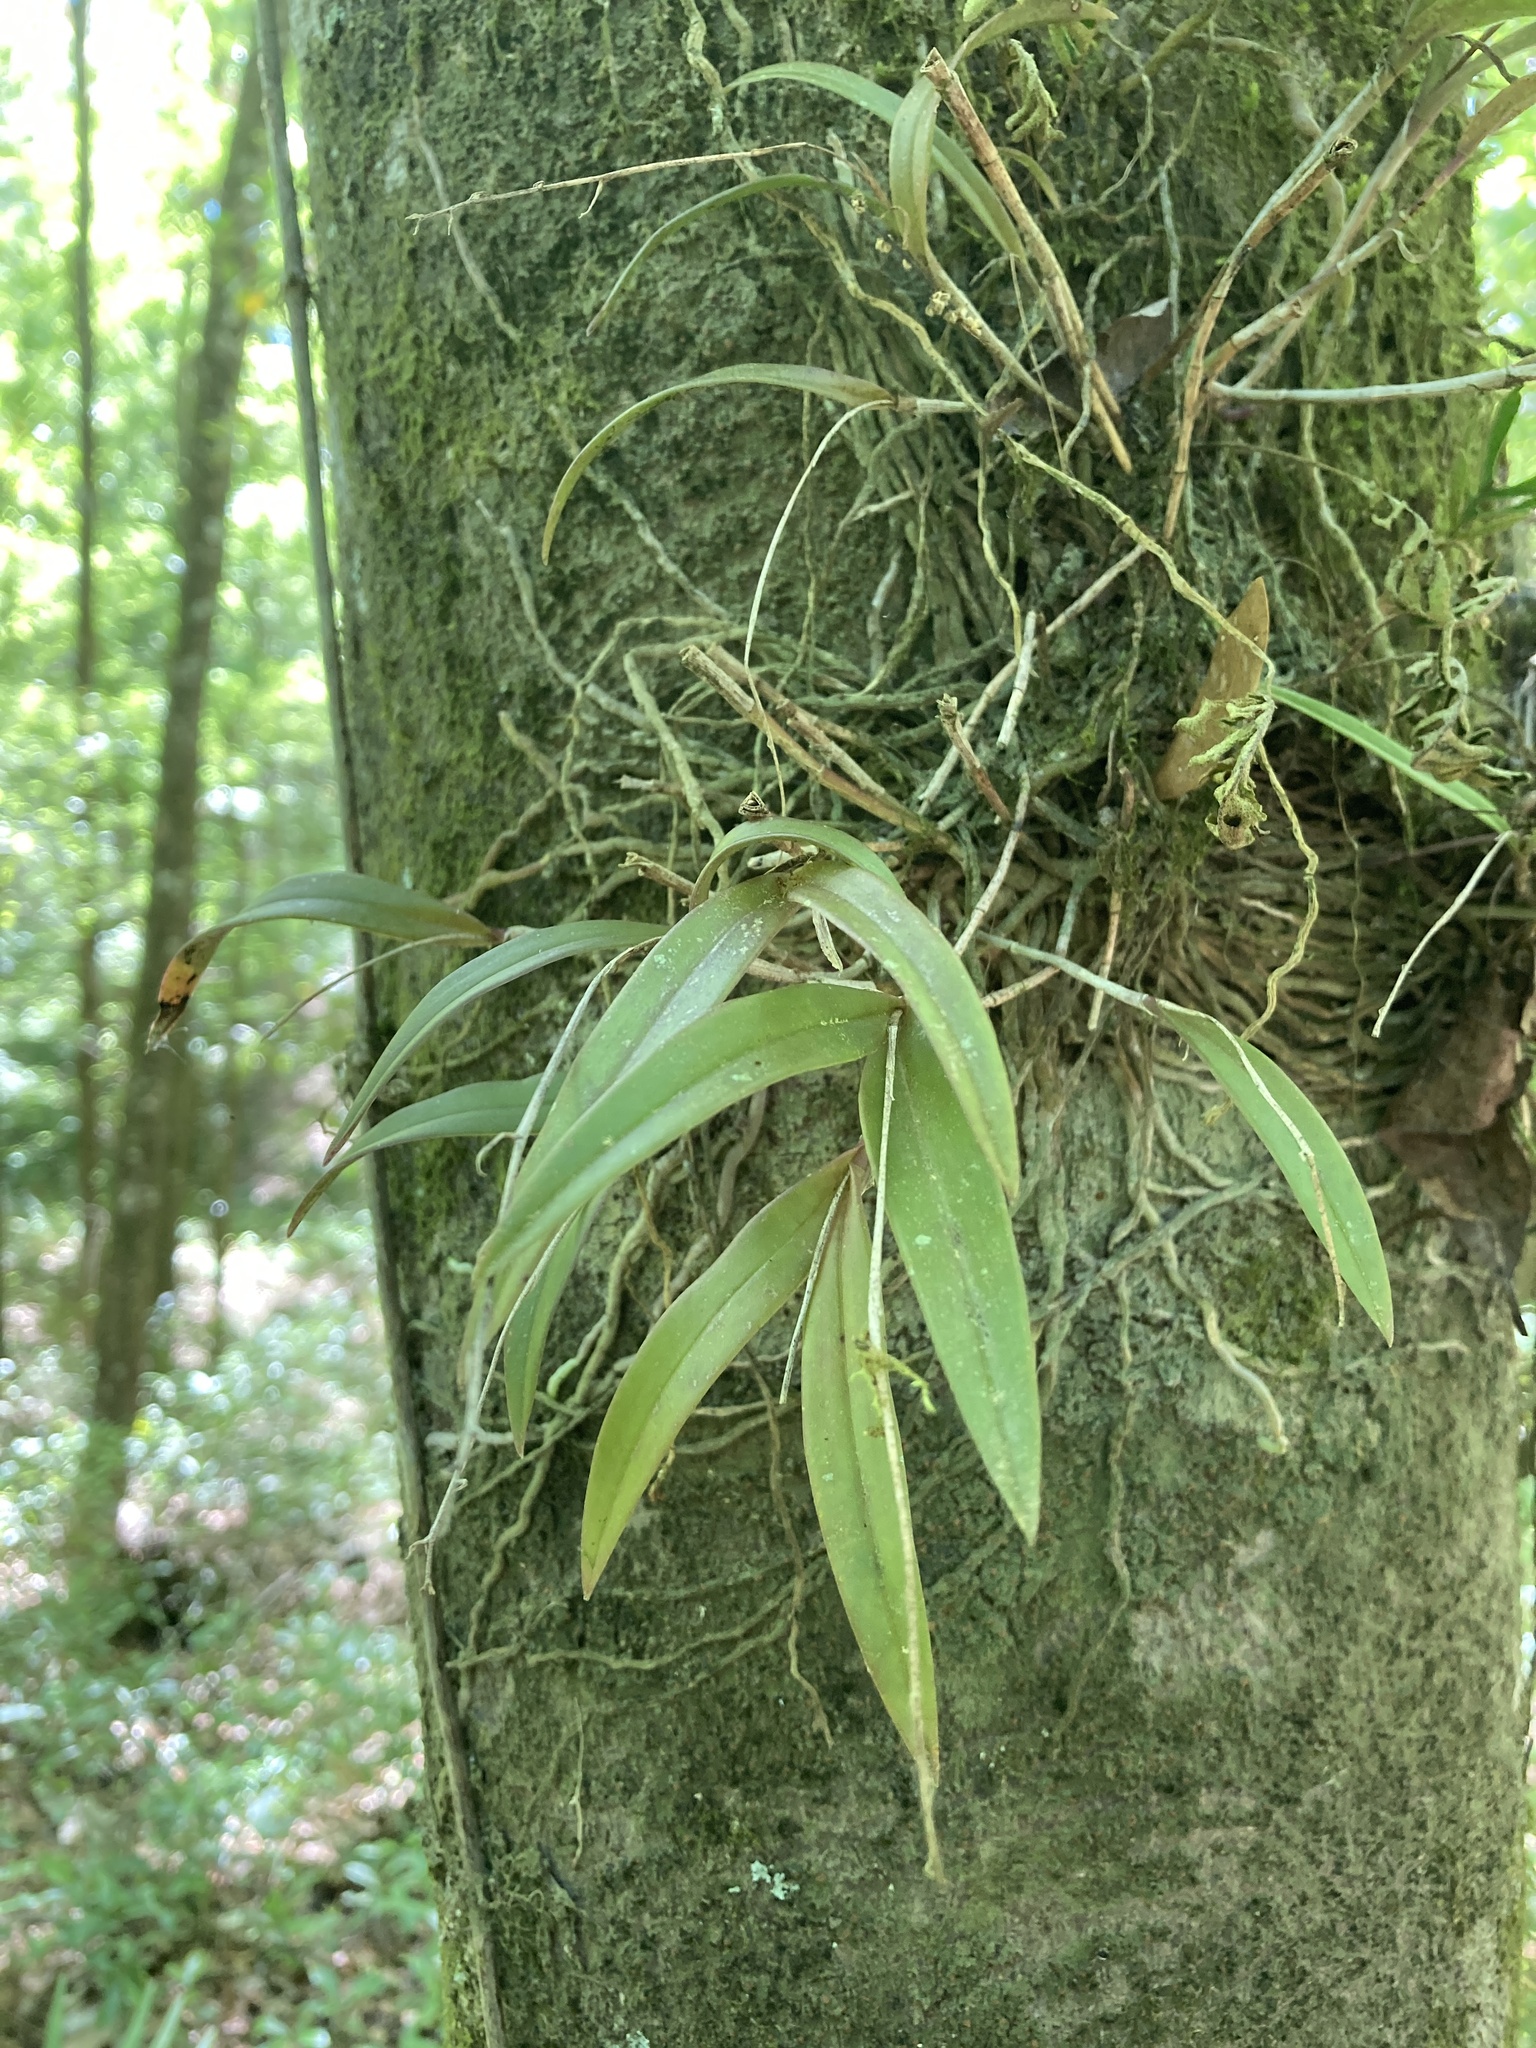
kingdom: Plantae
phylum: Tracheophyta
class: Liliopsida
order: Asparagales
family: Orchidaceae
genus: Epidendrum
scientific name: Epidendrum conopseum
